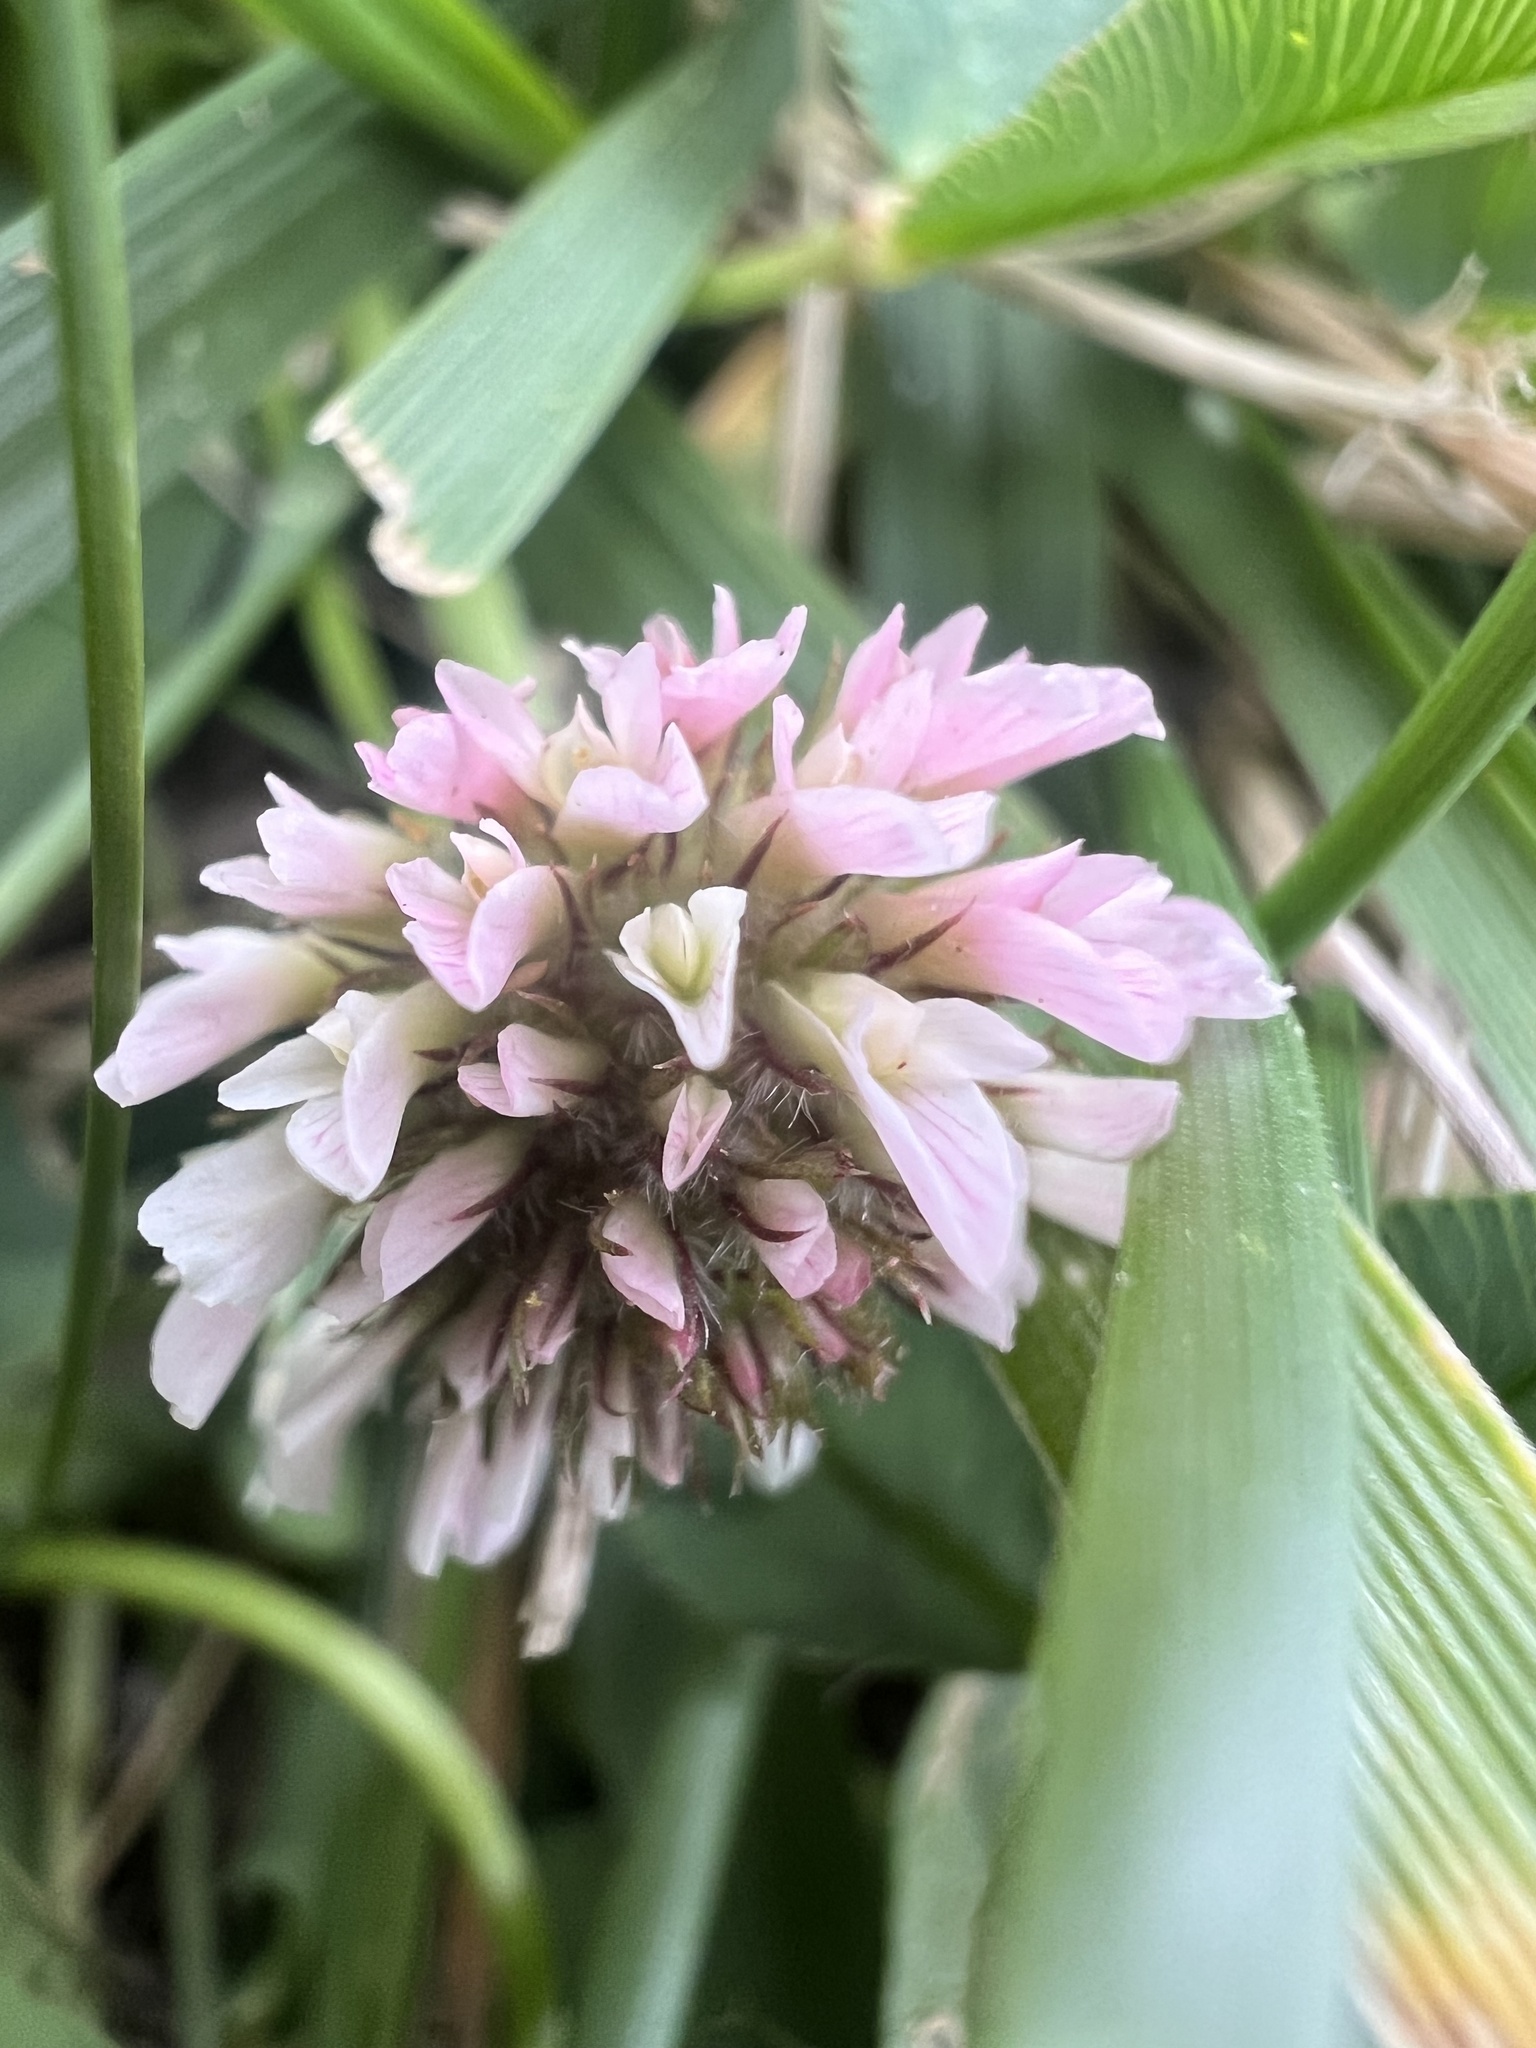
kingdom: Plantae
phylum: Tracheophyta
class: Magnoliopsida
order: Fabales
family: Fabaceae
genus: Trifolium
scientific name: Trifolium fragiferum
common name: Strawberry clover
